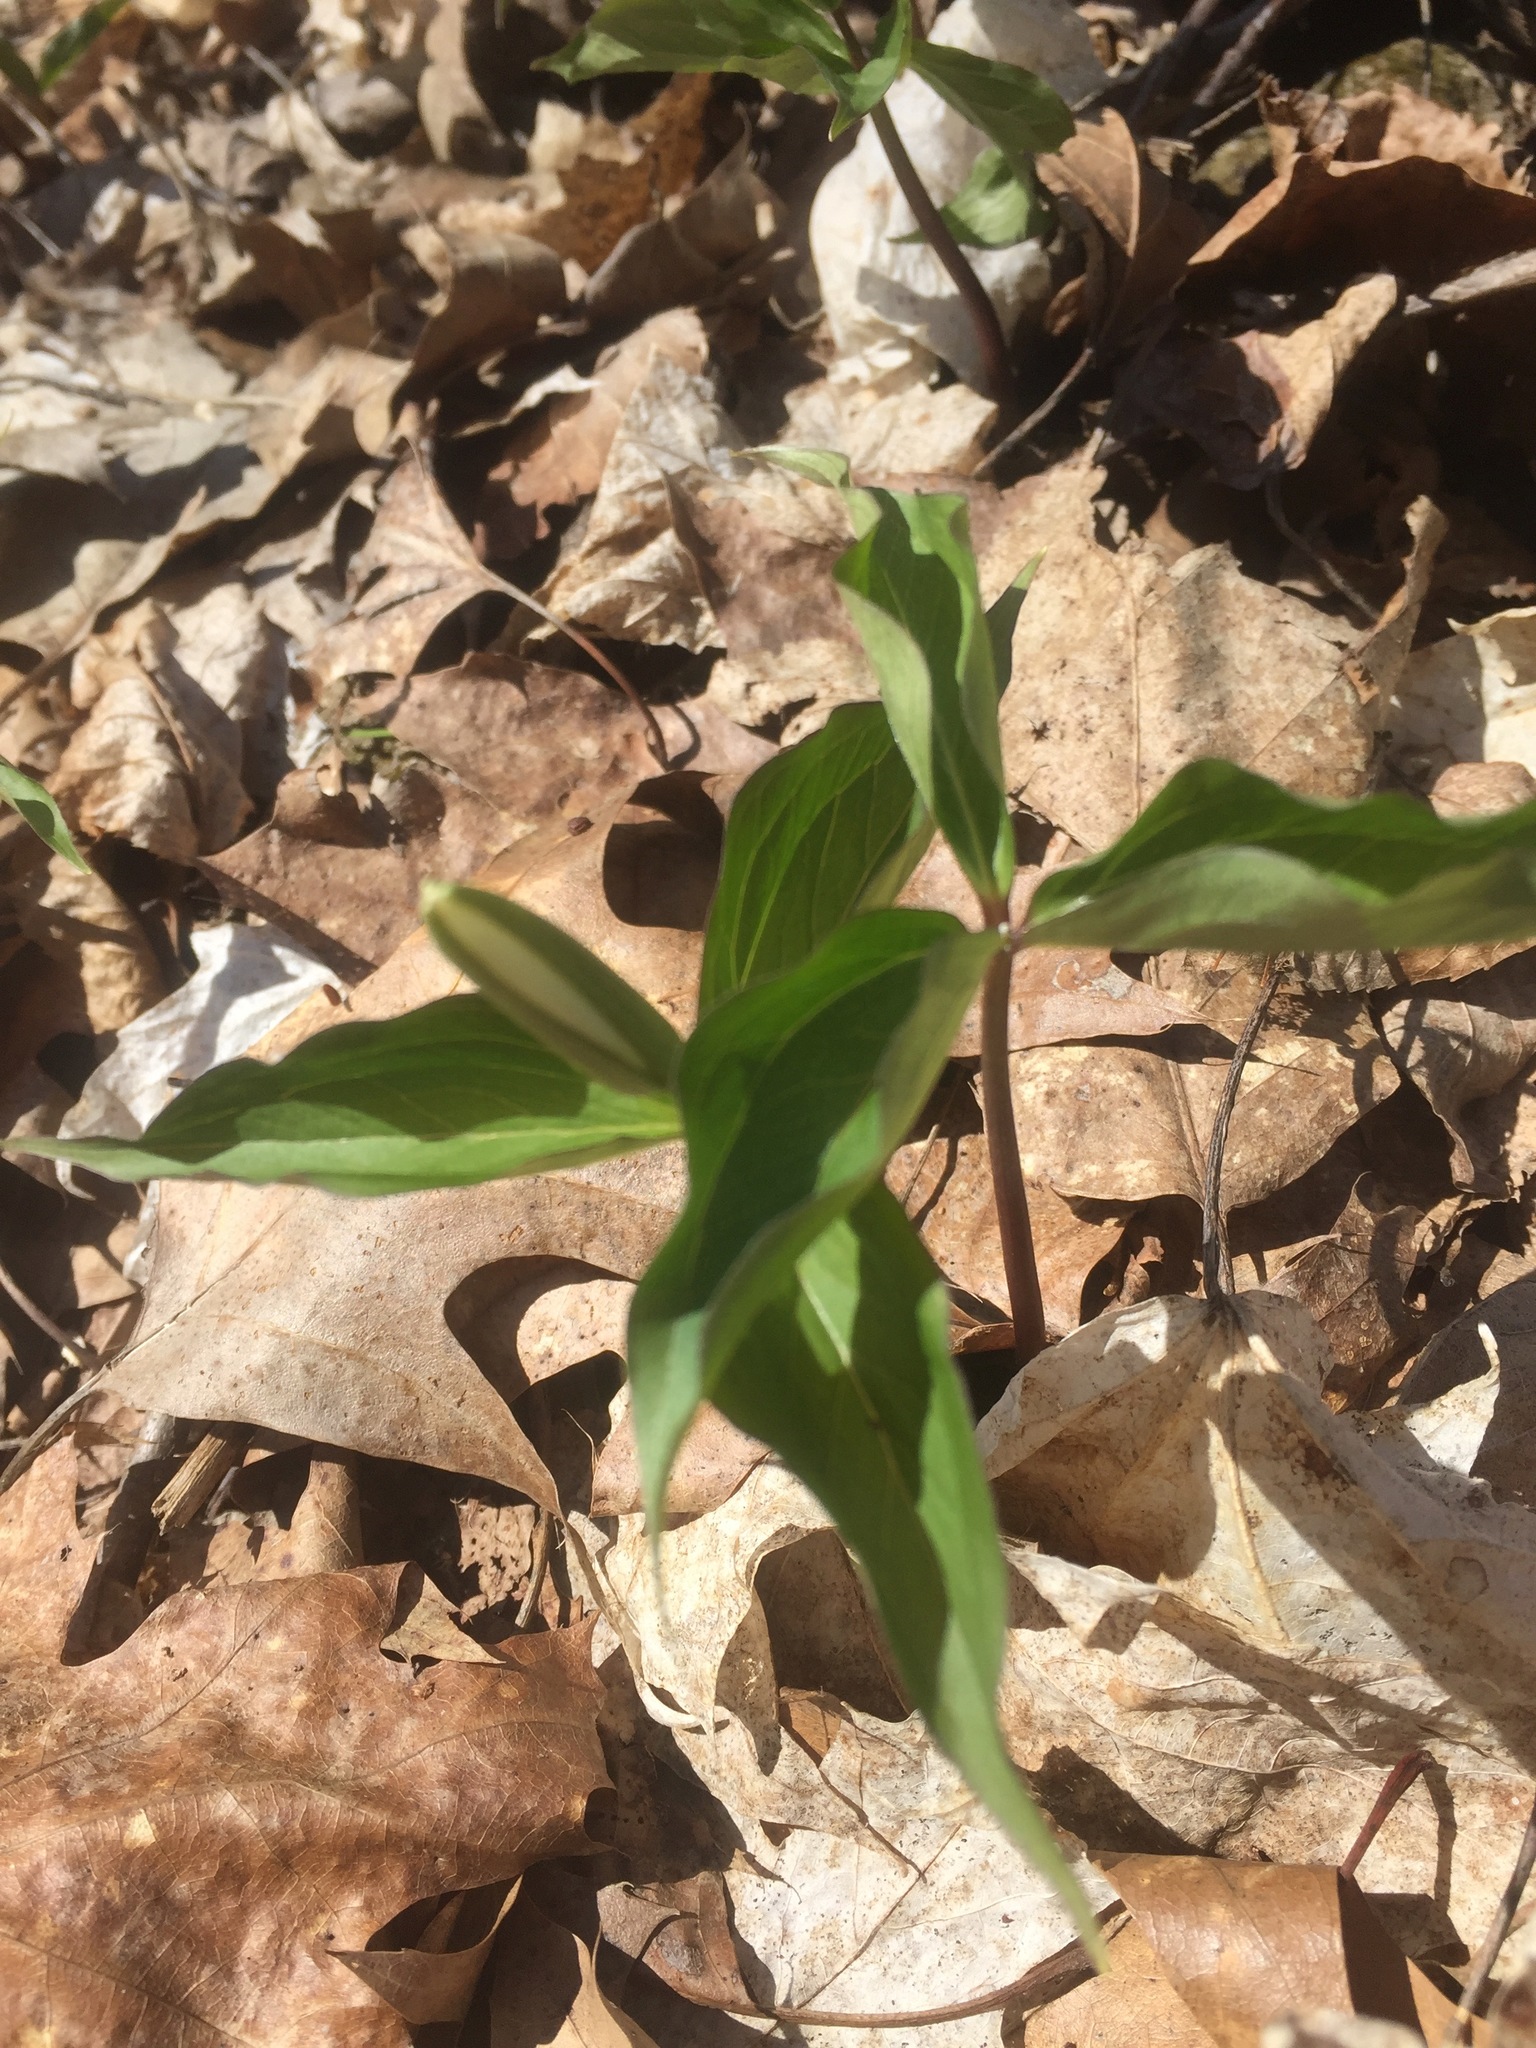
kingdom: Plantae
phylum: Tracheophyta
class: Liliopsida
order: Liliales
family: Melanthiaceae
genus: Trillium
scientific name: Trillium grandiflorum
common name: Great white trillium
